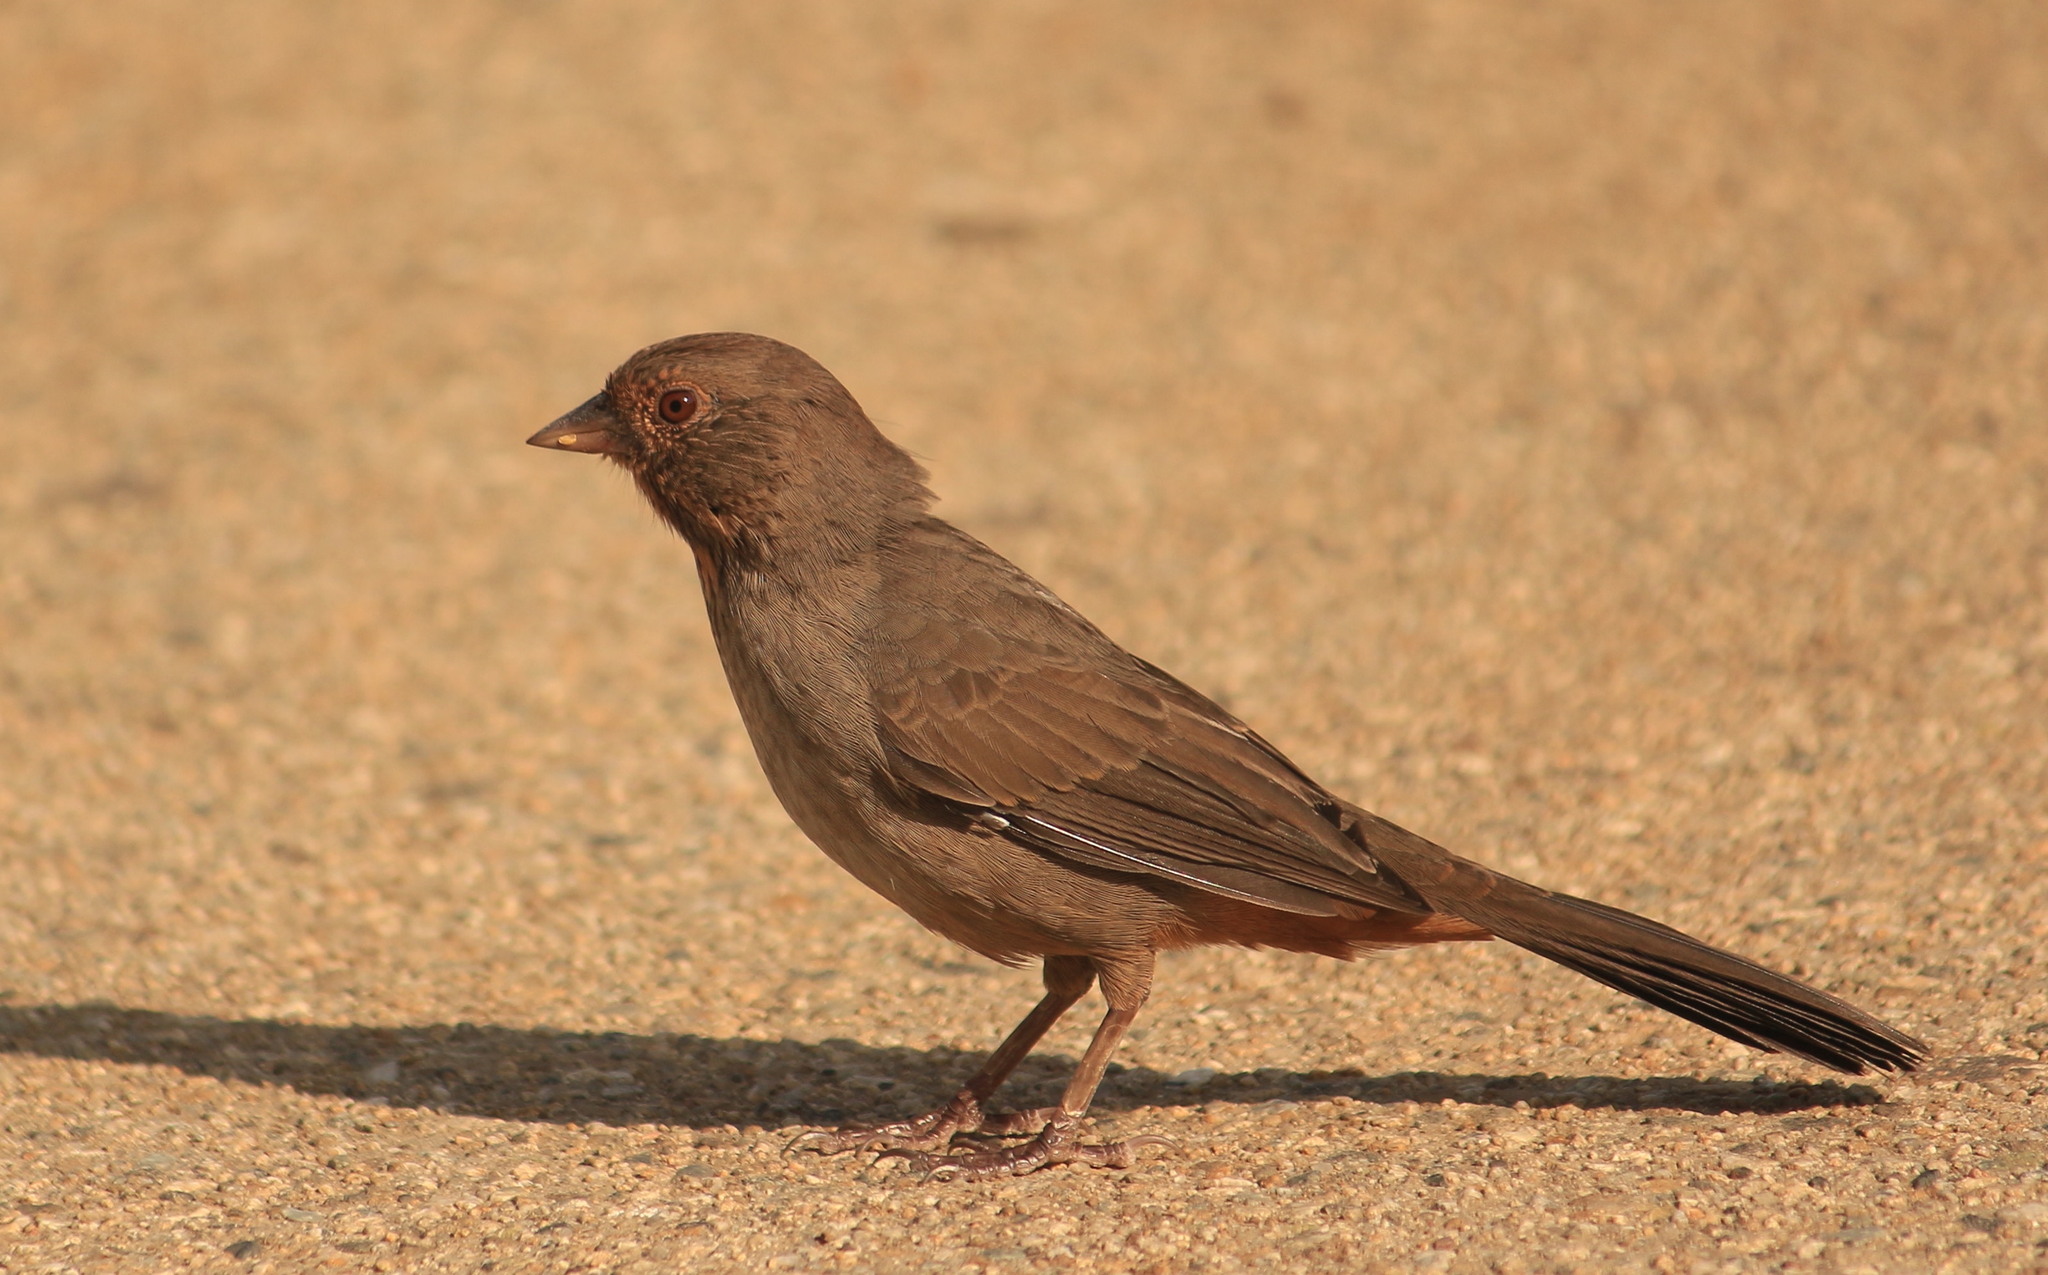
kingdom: Animalia
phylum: Chordata
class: Aves
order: Passeriformes
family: Passerellidae
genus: Melozone
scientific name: Melozone crissalis
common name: California towhee
